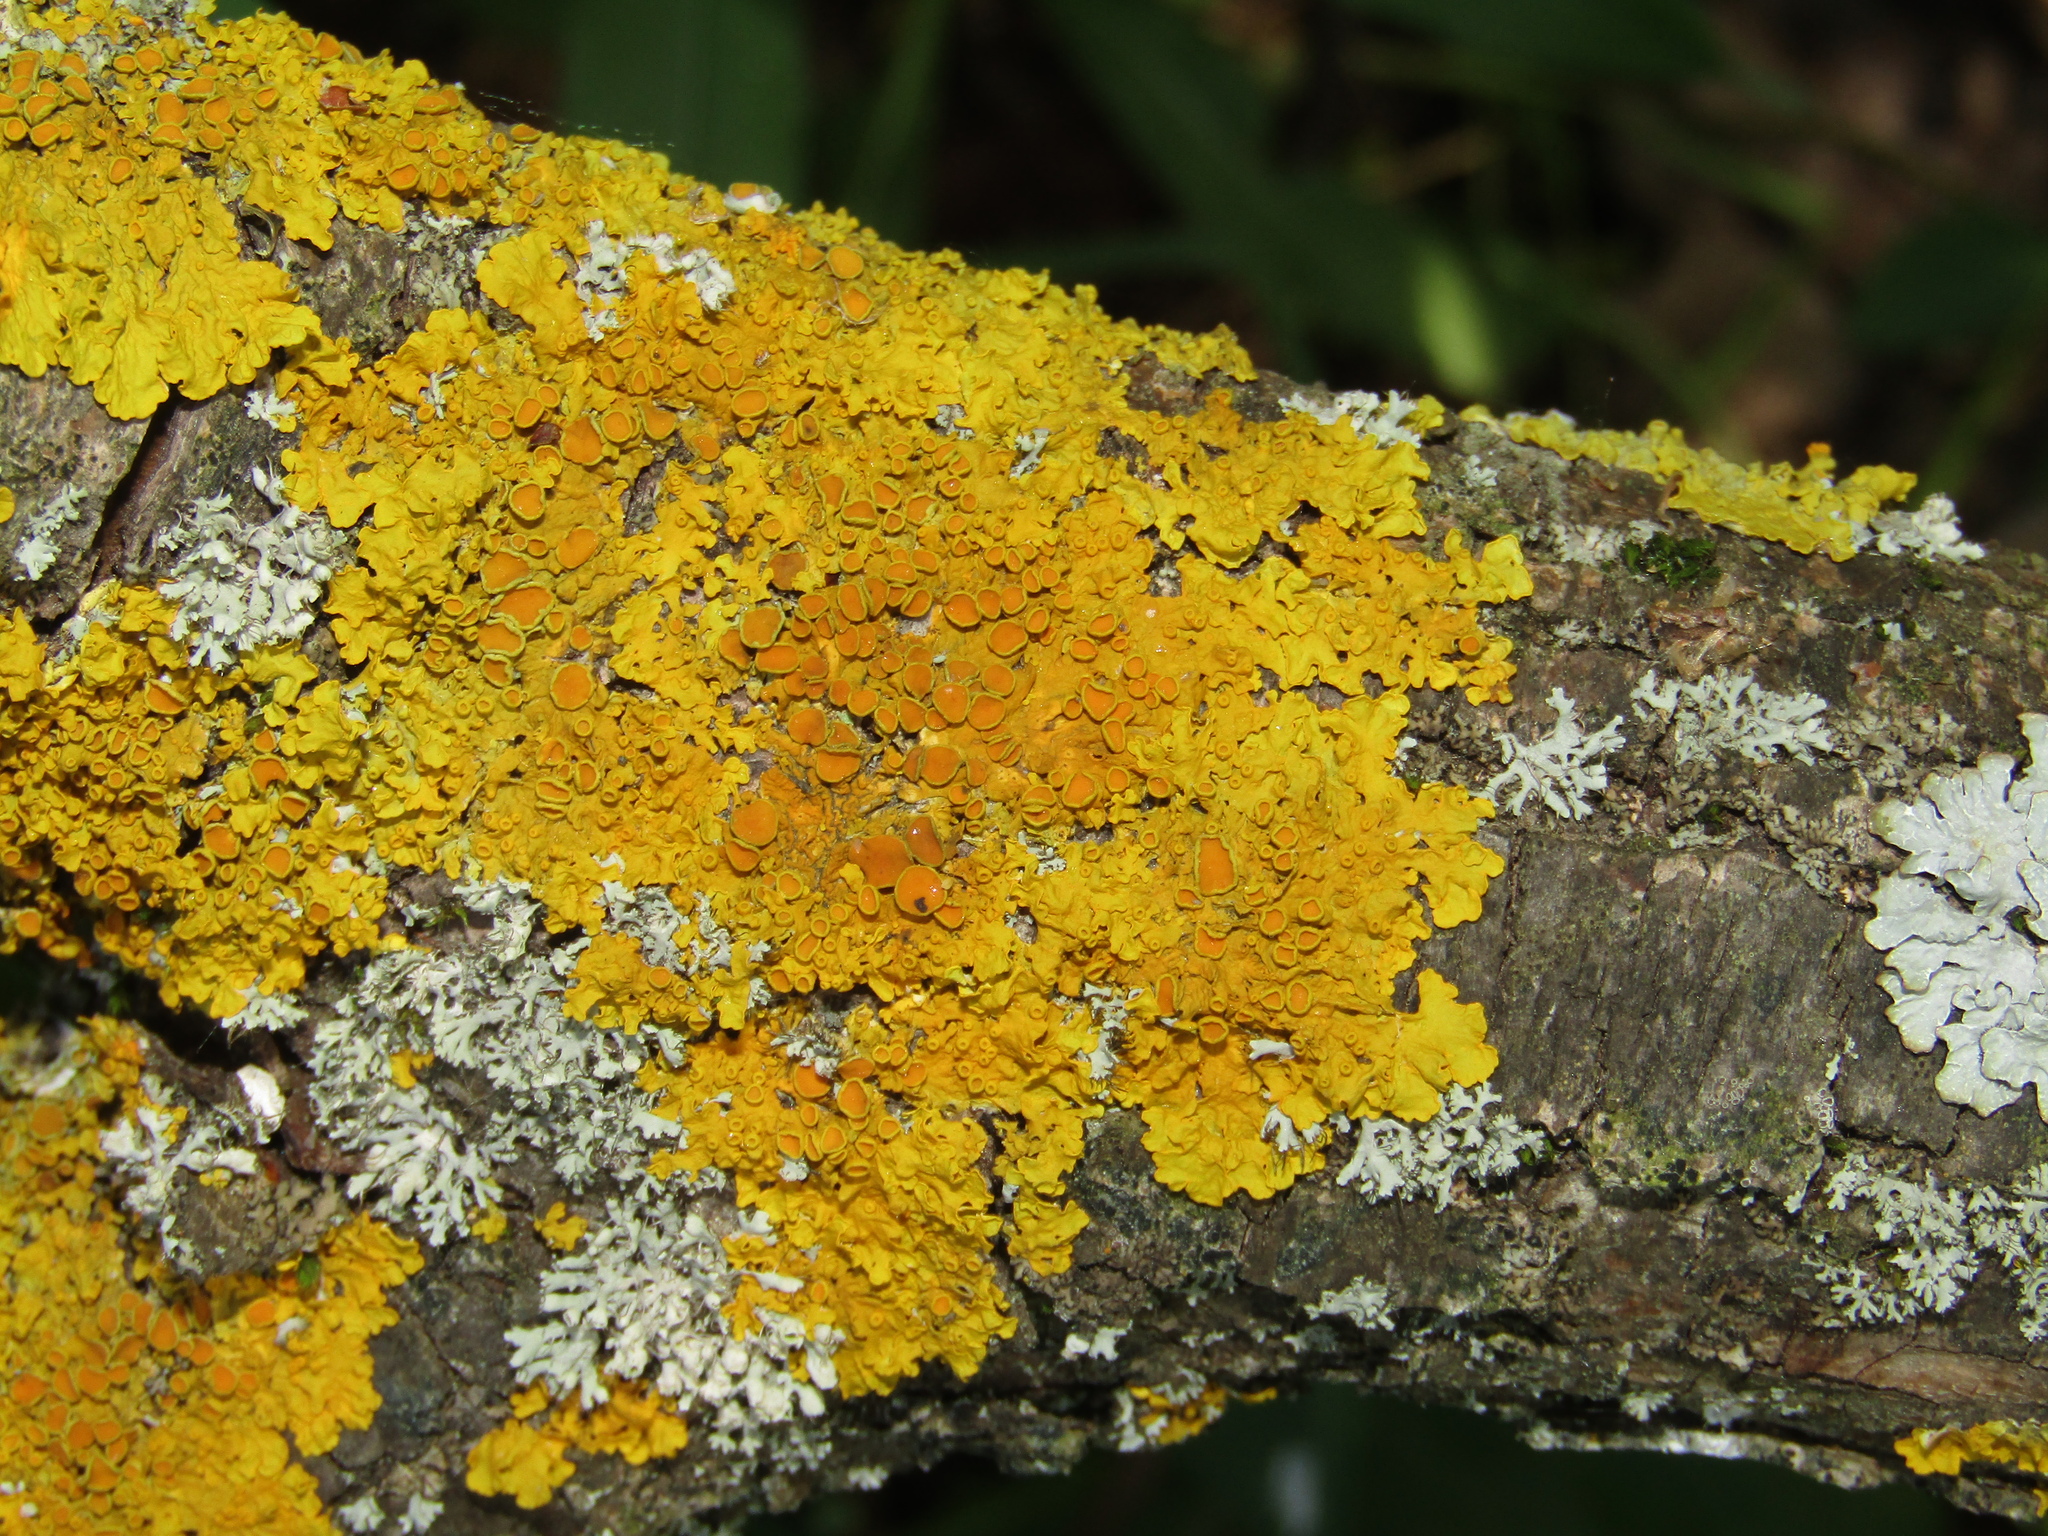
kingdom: Fungi
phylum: Ascomycota
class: Lecanoromycetes
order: Teloschistales
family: Teloschistaceae
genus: Xanthoria
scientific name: Xanthoria parietina
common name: Common orange lichen
